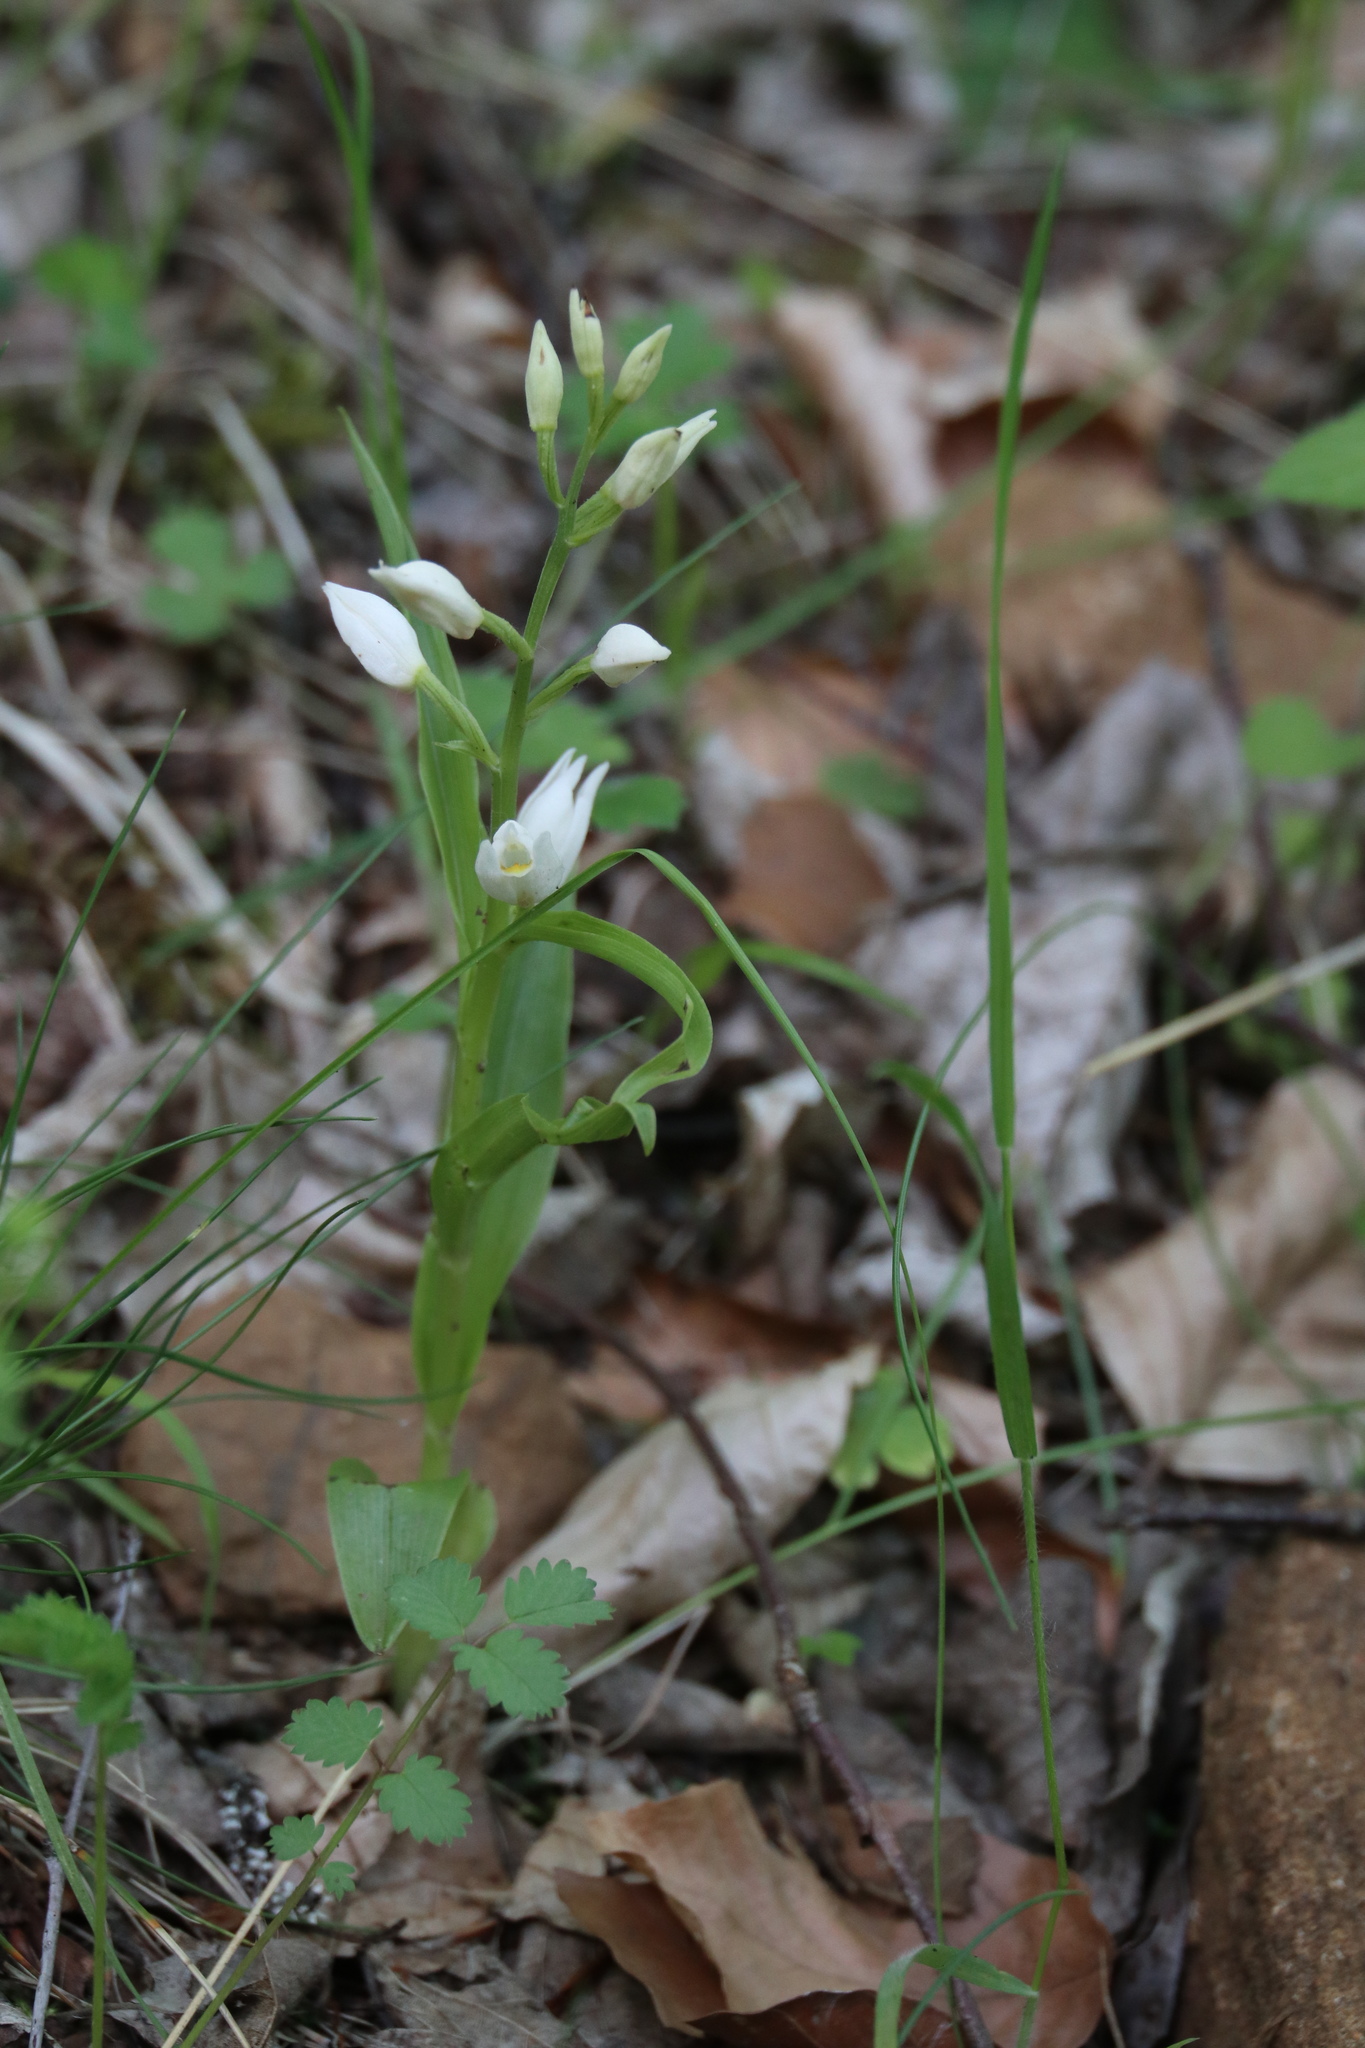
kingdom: Plantae
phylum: Tracheophyta
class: Liliopsida
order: Asparagales
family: Orchidaceae
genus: Cephalanthera
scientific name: Cephalanthera longifolia
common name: Narrow-leaved helleborine
